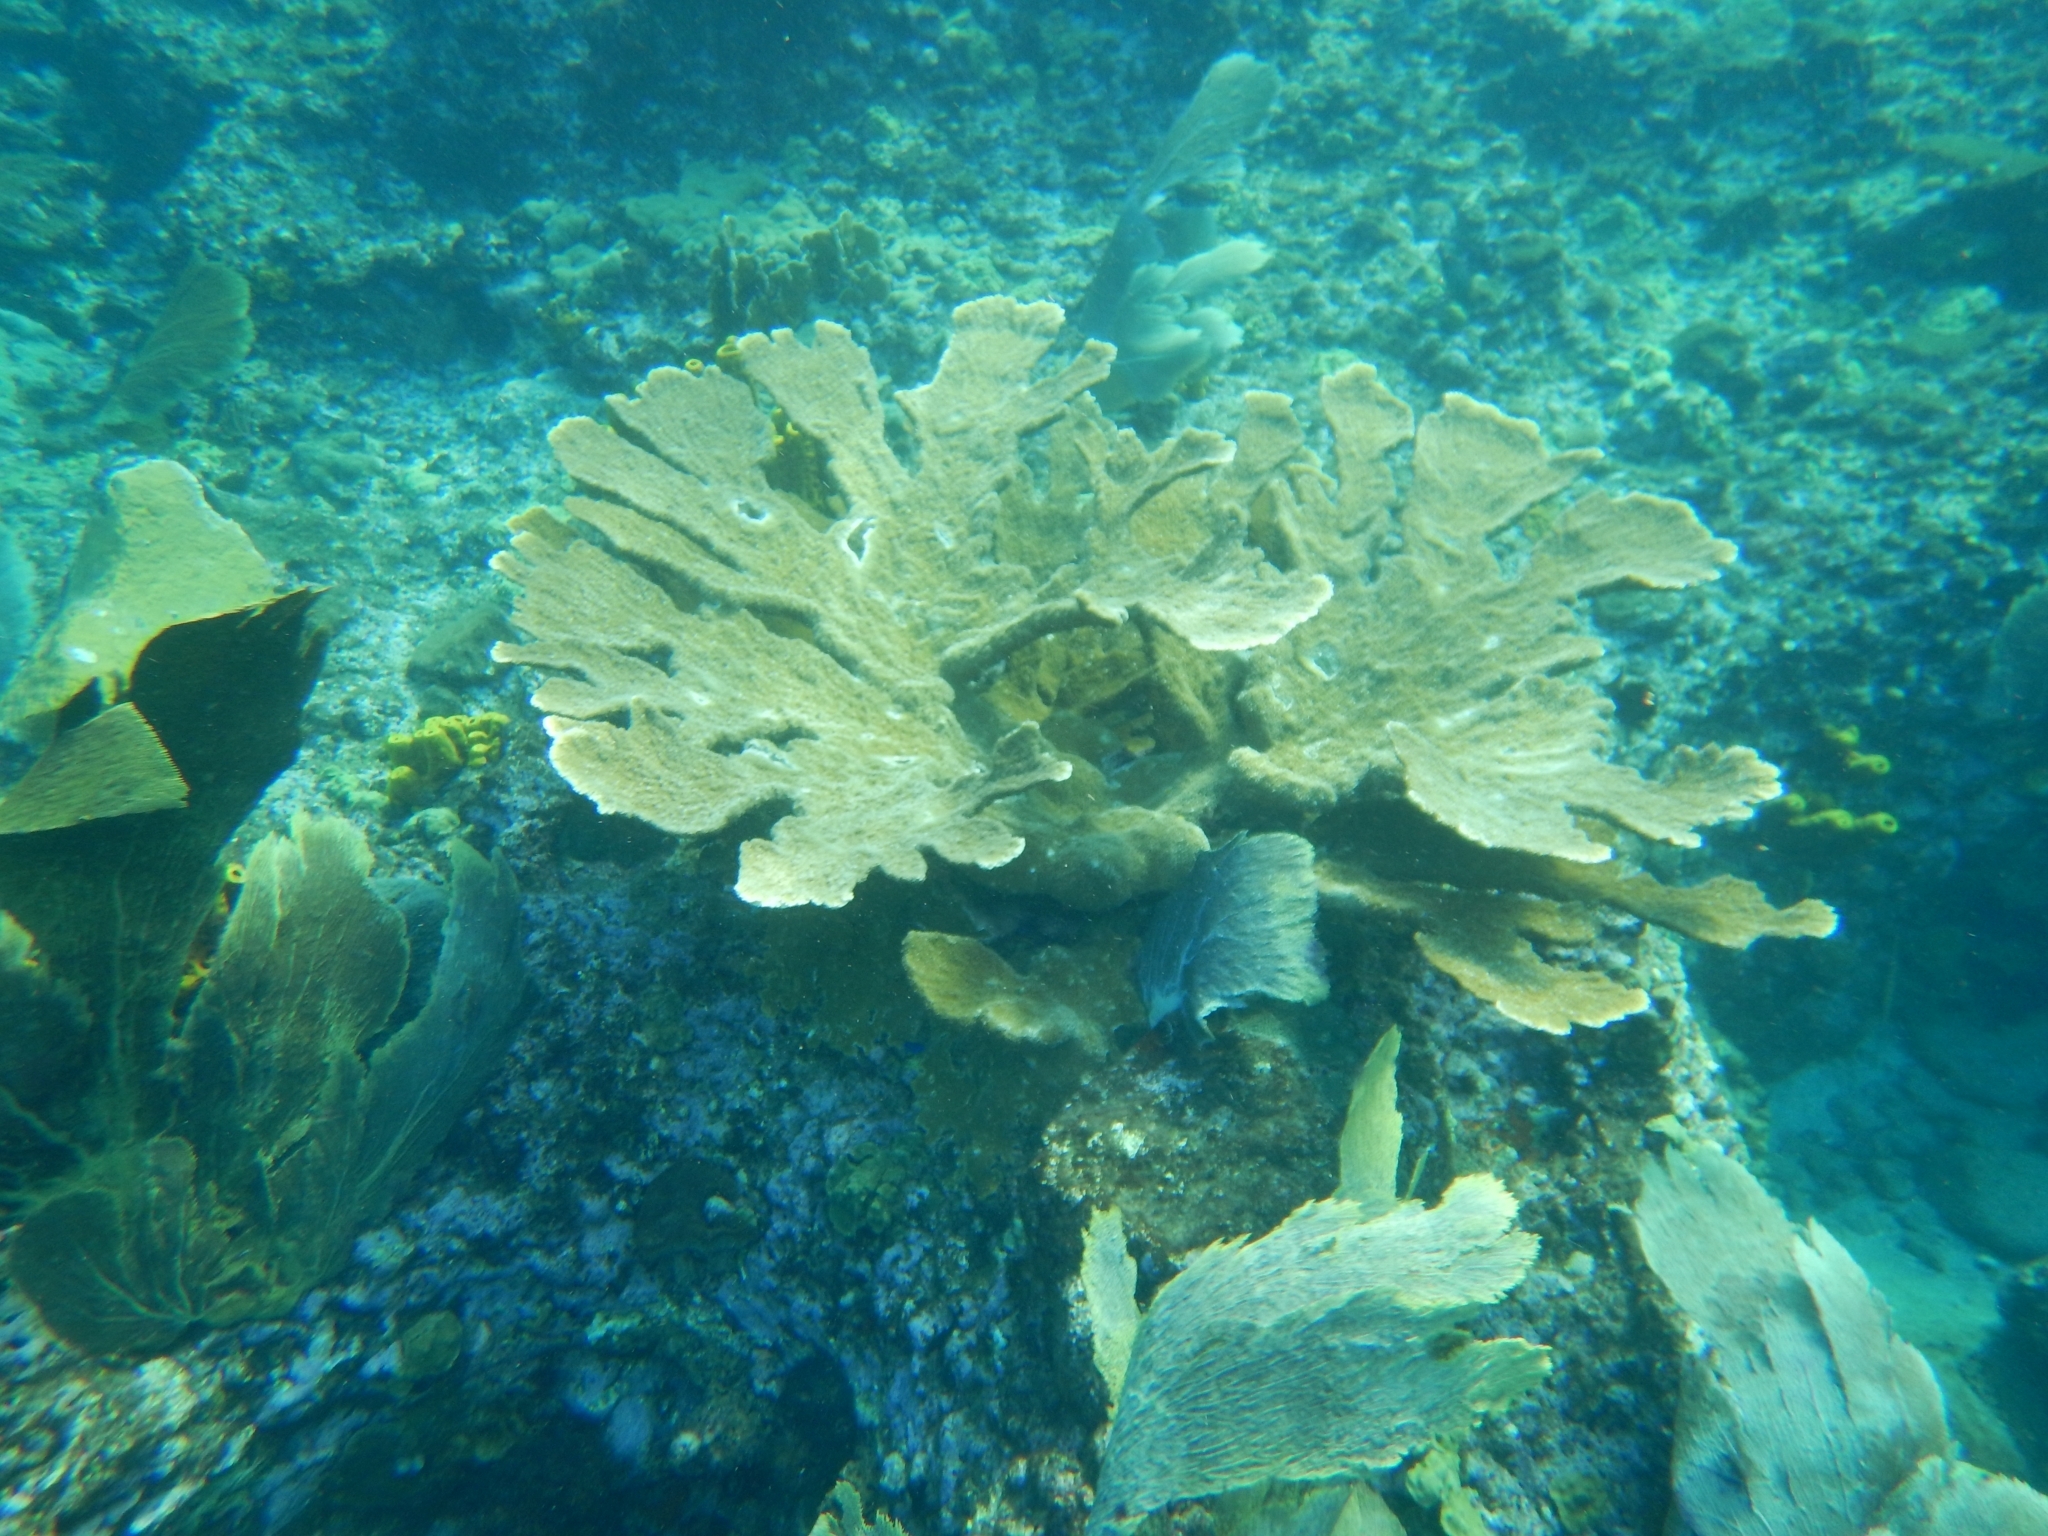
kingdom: Animalia
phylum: Cnidaria
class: Anthozoa
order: Scleractinia
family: Acroporidae
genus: Acropora
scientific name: Acropora palmata
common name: Elkhorn coral
